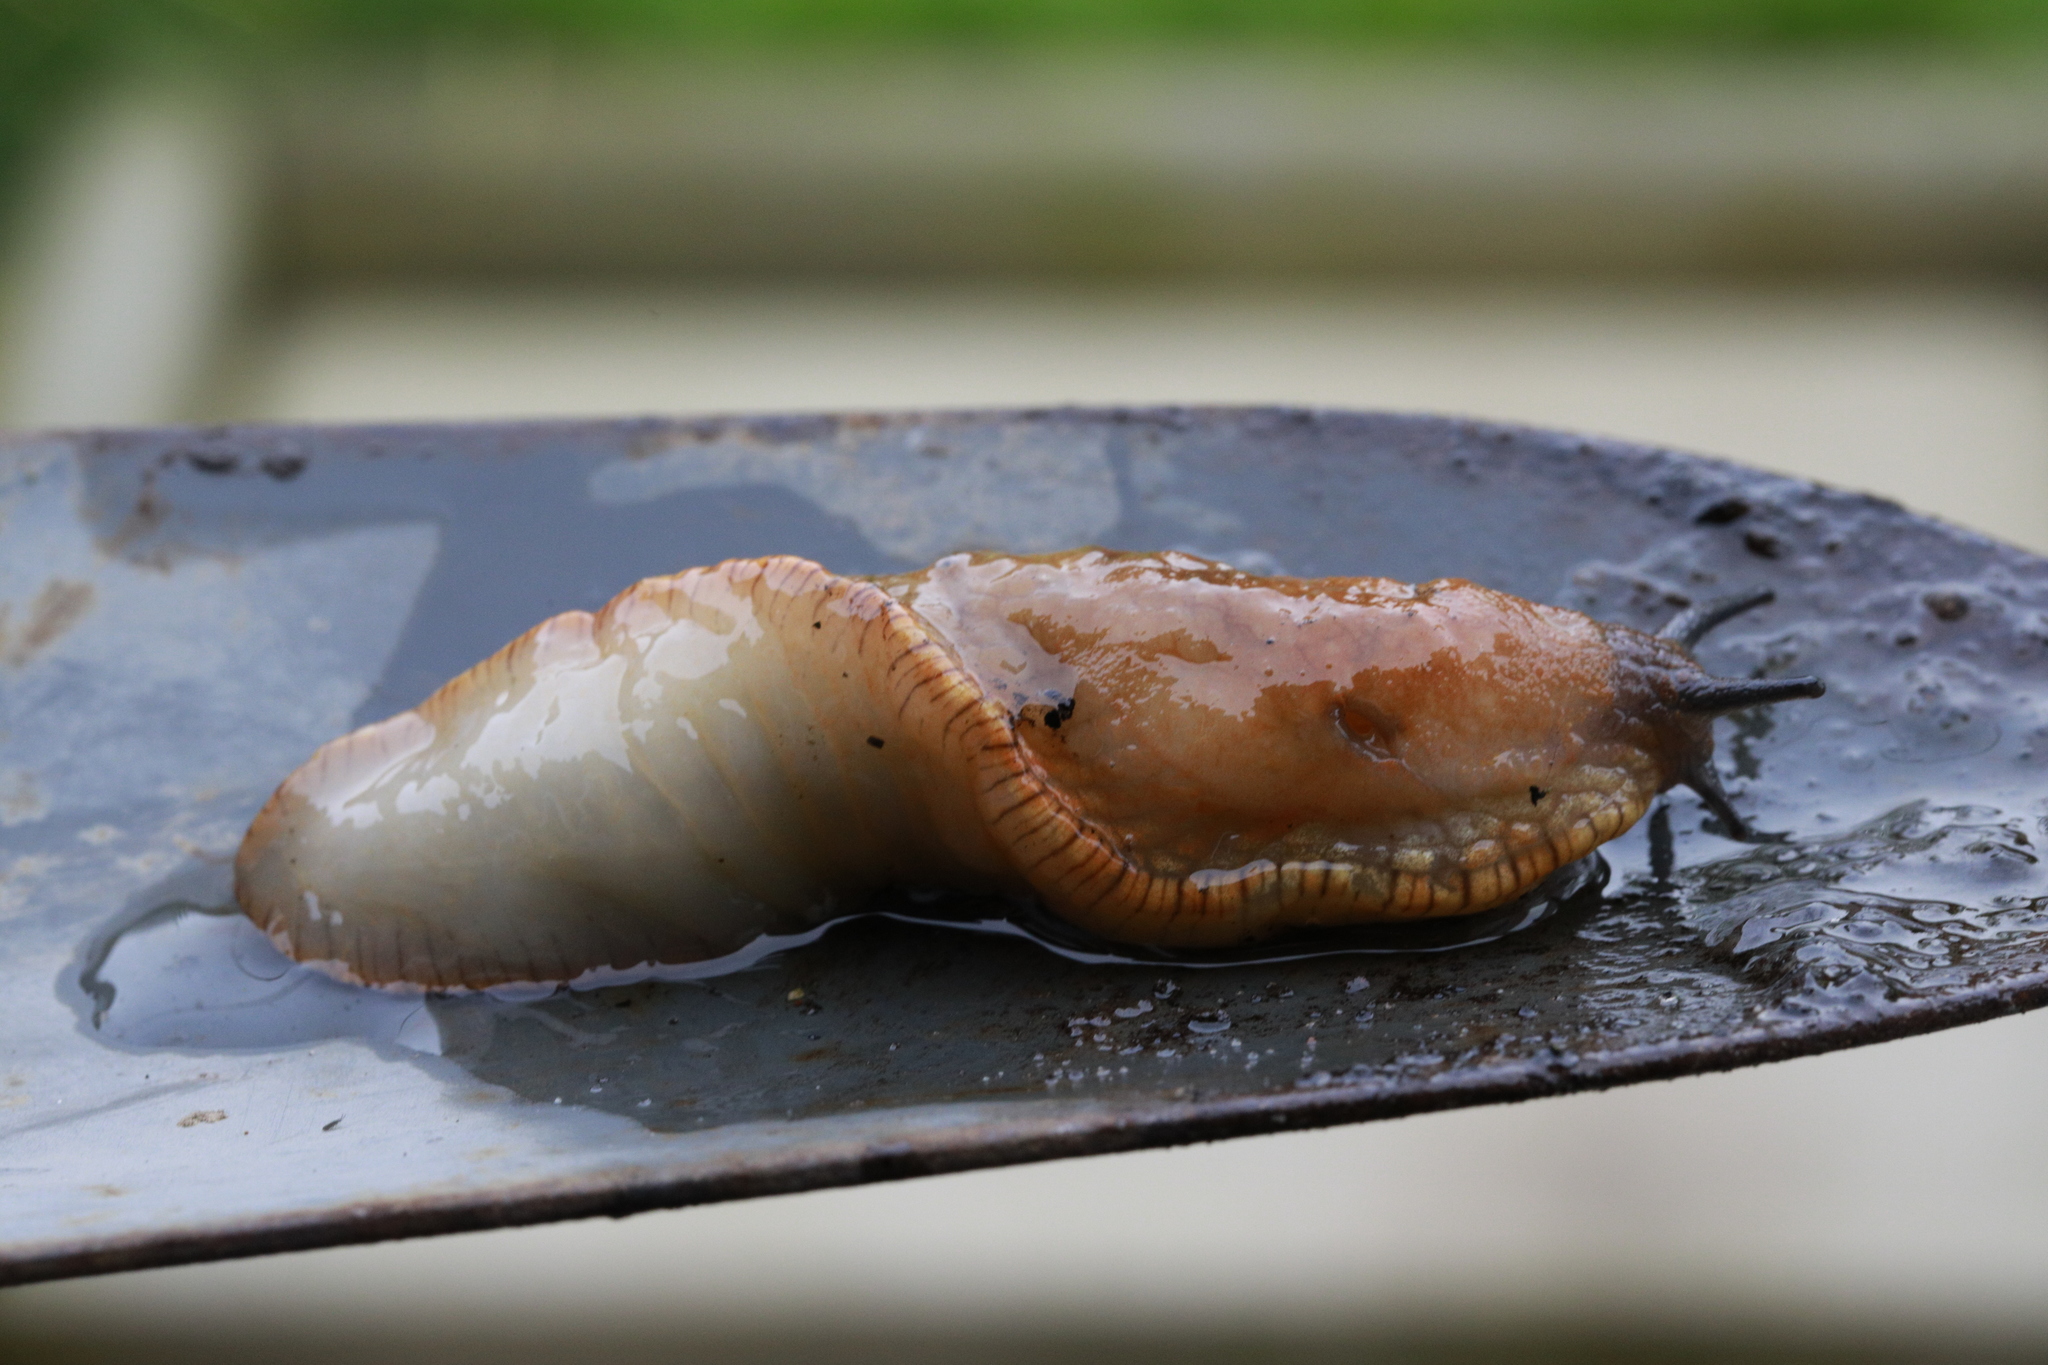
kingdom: Animalia
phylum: Mollusca
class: Gastropoda
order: Stylommatophora
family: Arionidae
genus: Arion
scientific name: Arion rufus
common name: Chocolate arion
